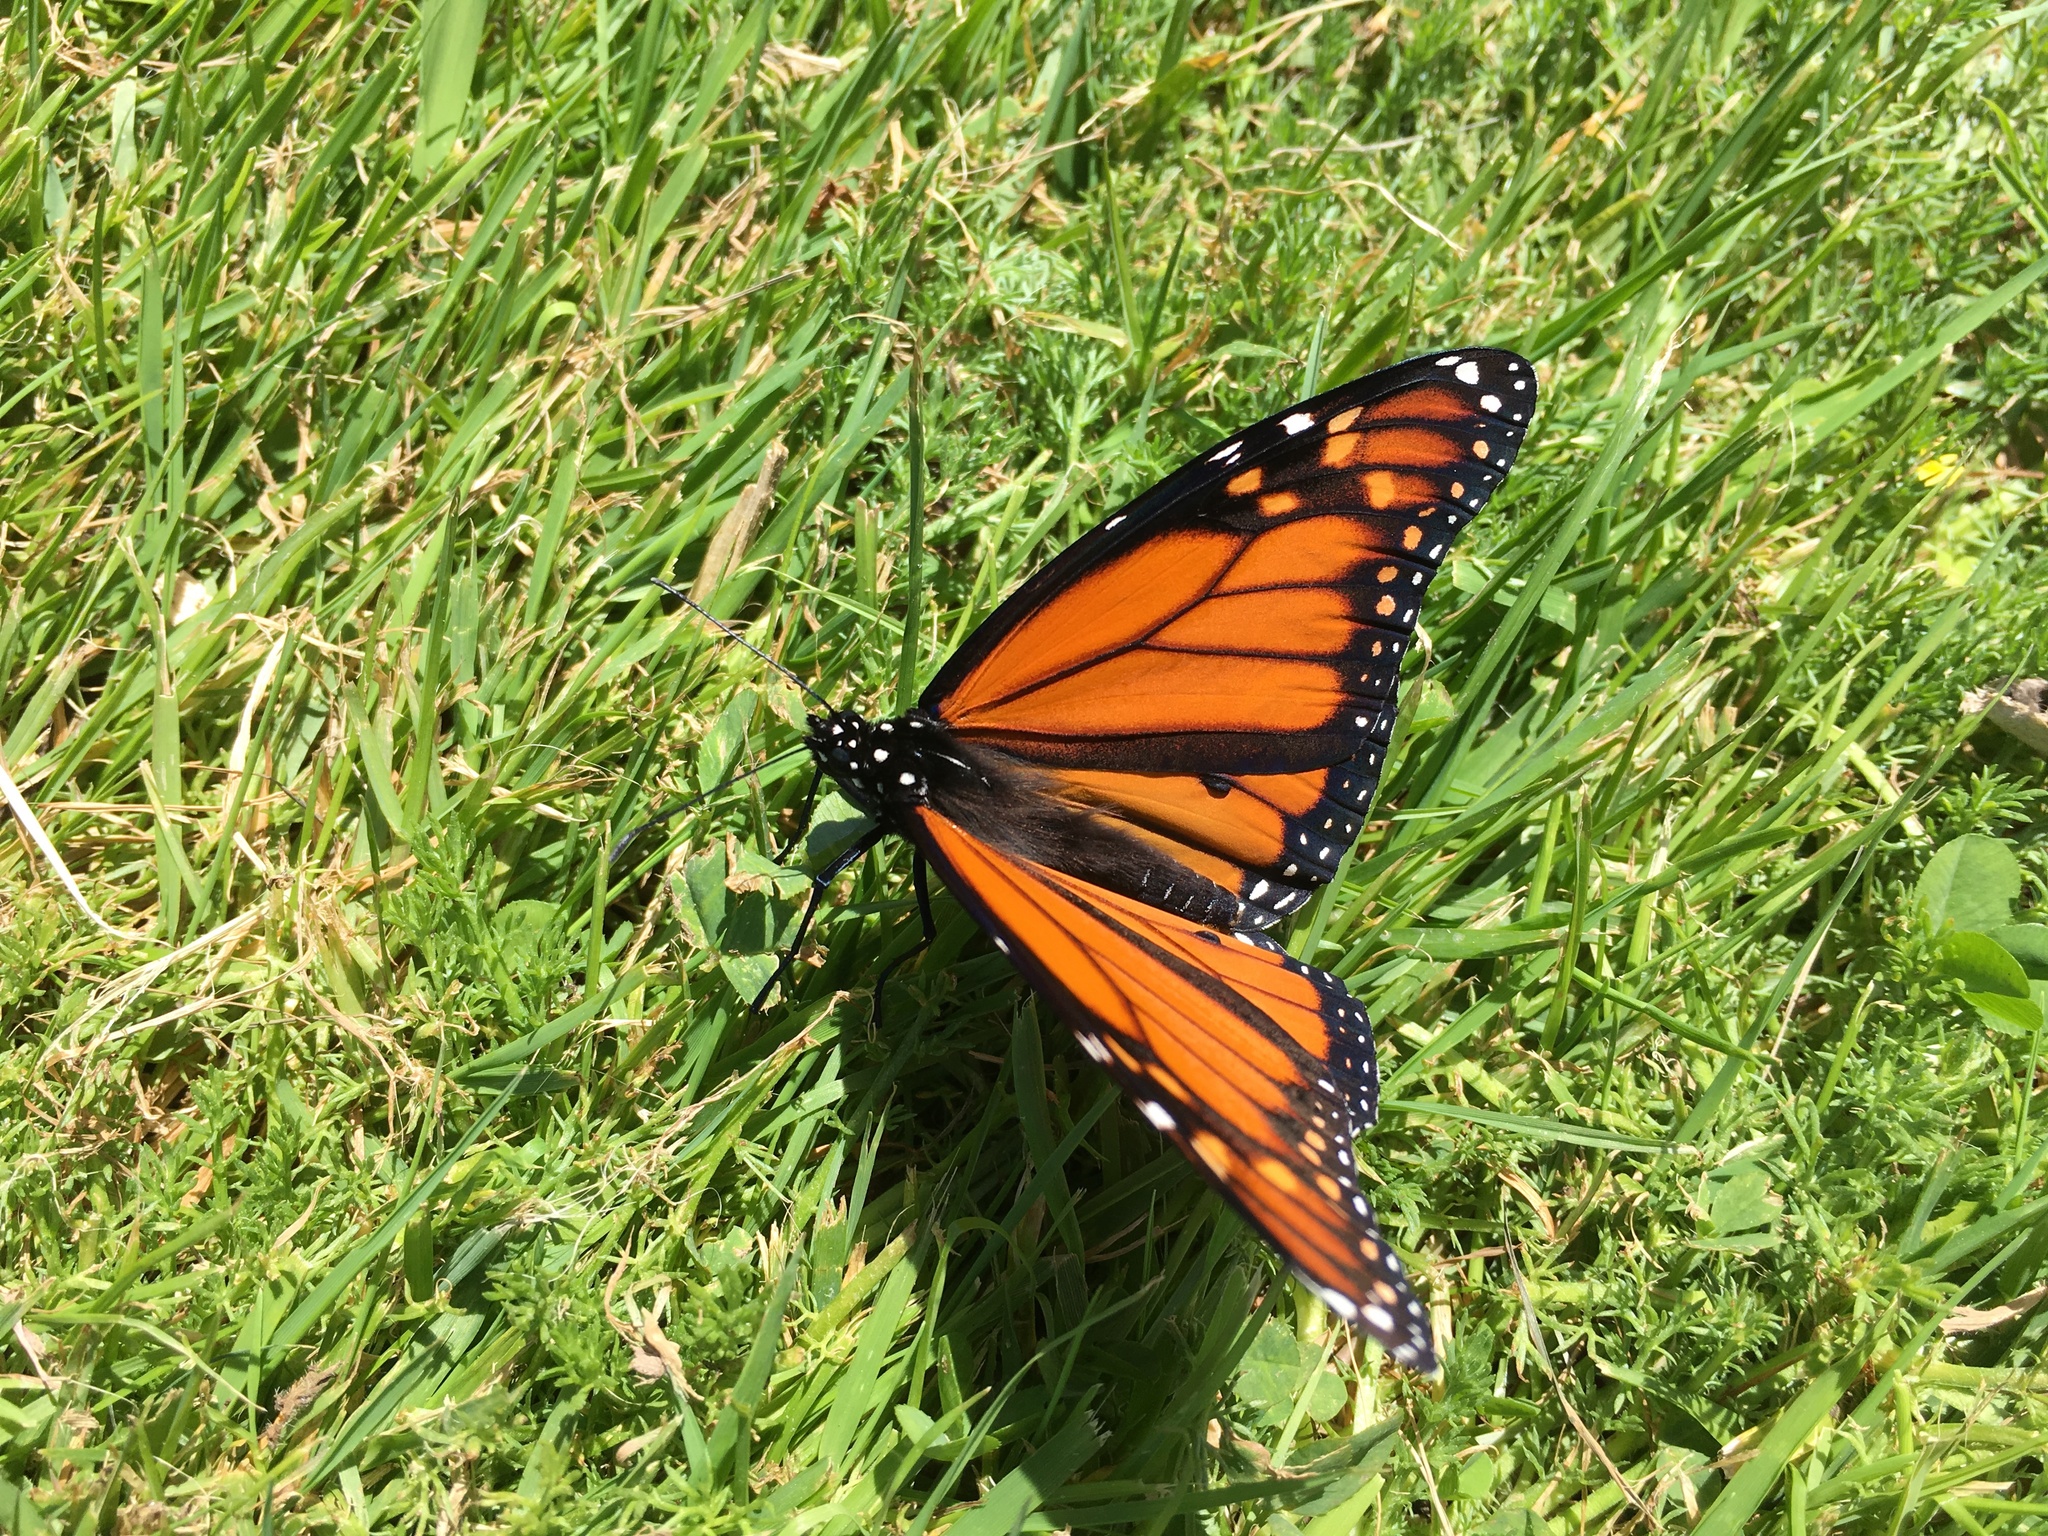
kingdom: Animalia
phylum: Arthropoda
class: Insecta
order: Lepidoptera
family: Nymphalidae
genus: Danaus
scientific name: Danaus plexippus
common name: Monarch
